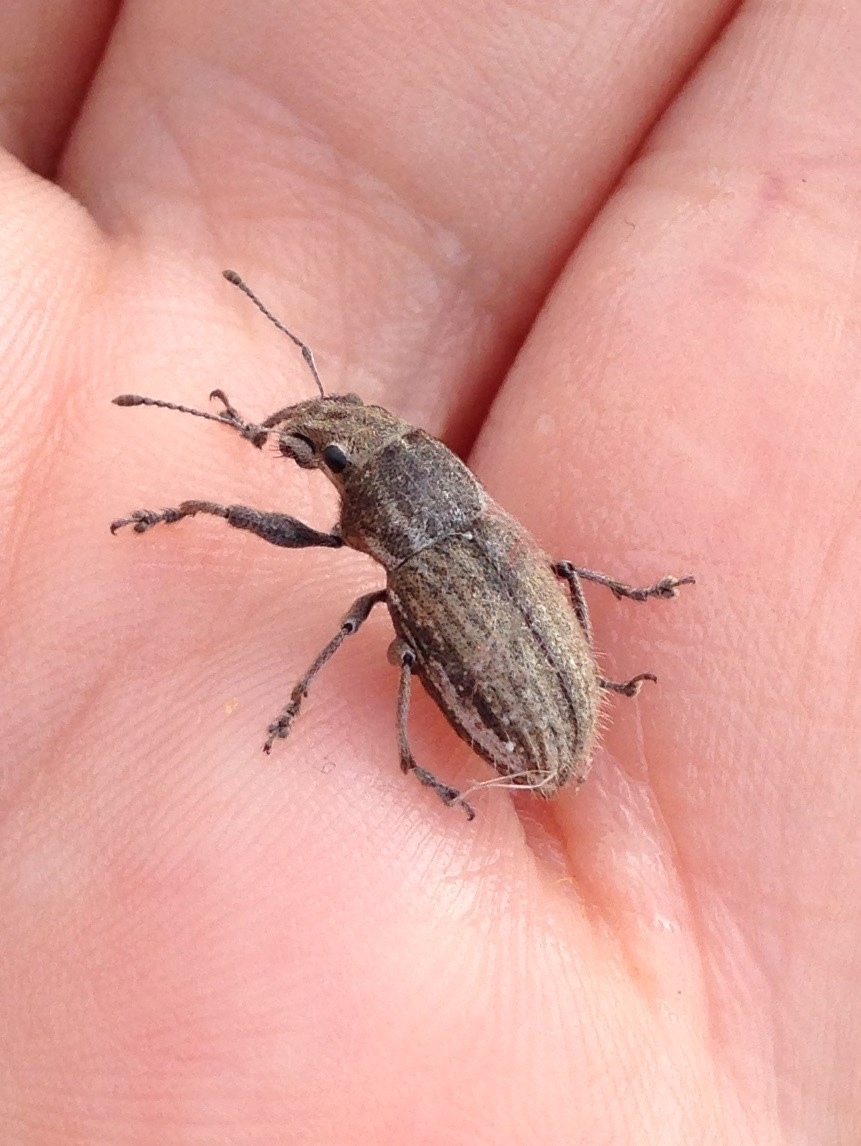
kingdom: Animalia
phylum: Arthropoda
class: Insecta
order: Coleoptera
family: Curculionidae
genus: Naupactus
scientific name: Naupactus leucoloma
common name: Whitefringed beetle
